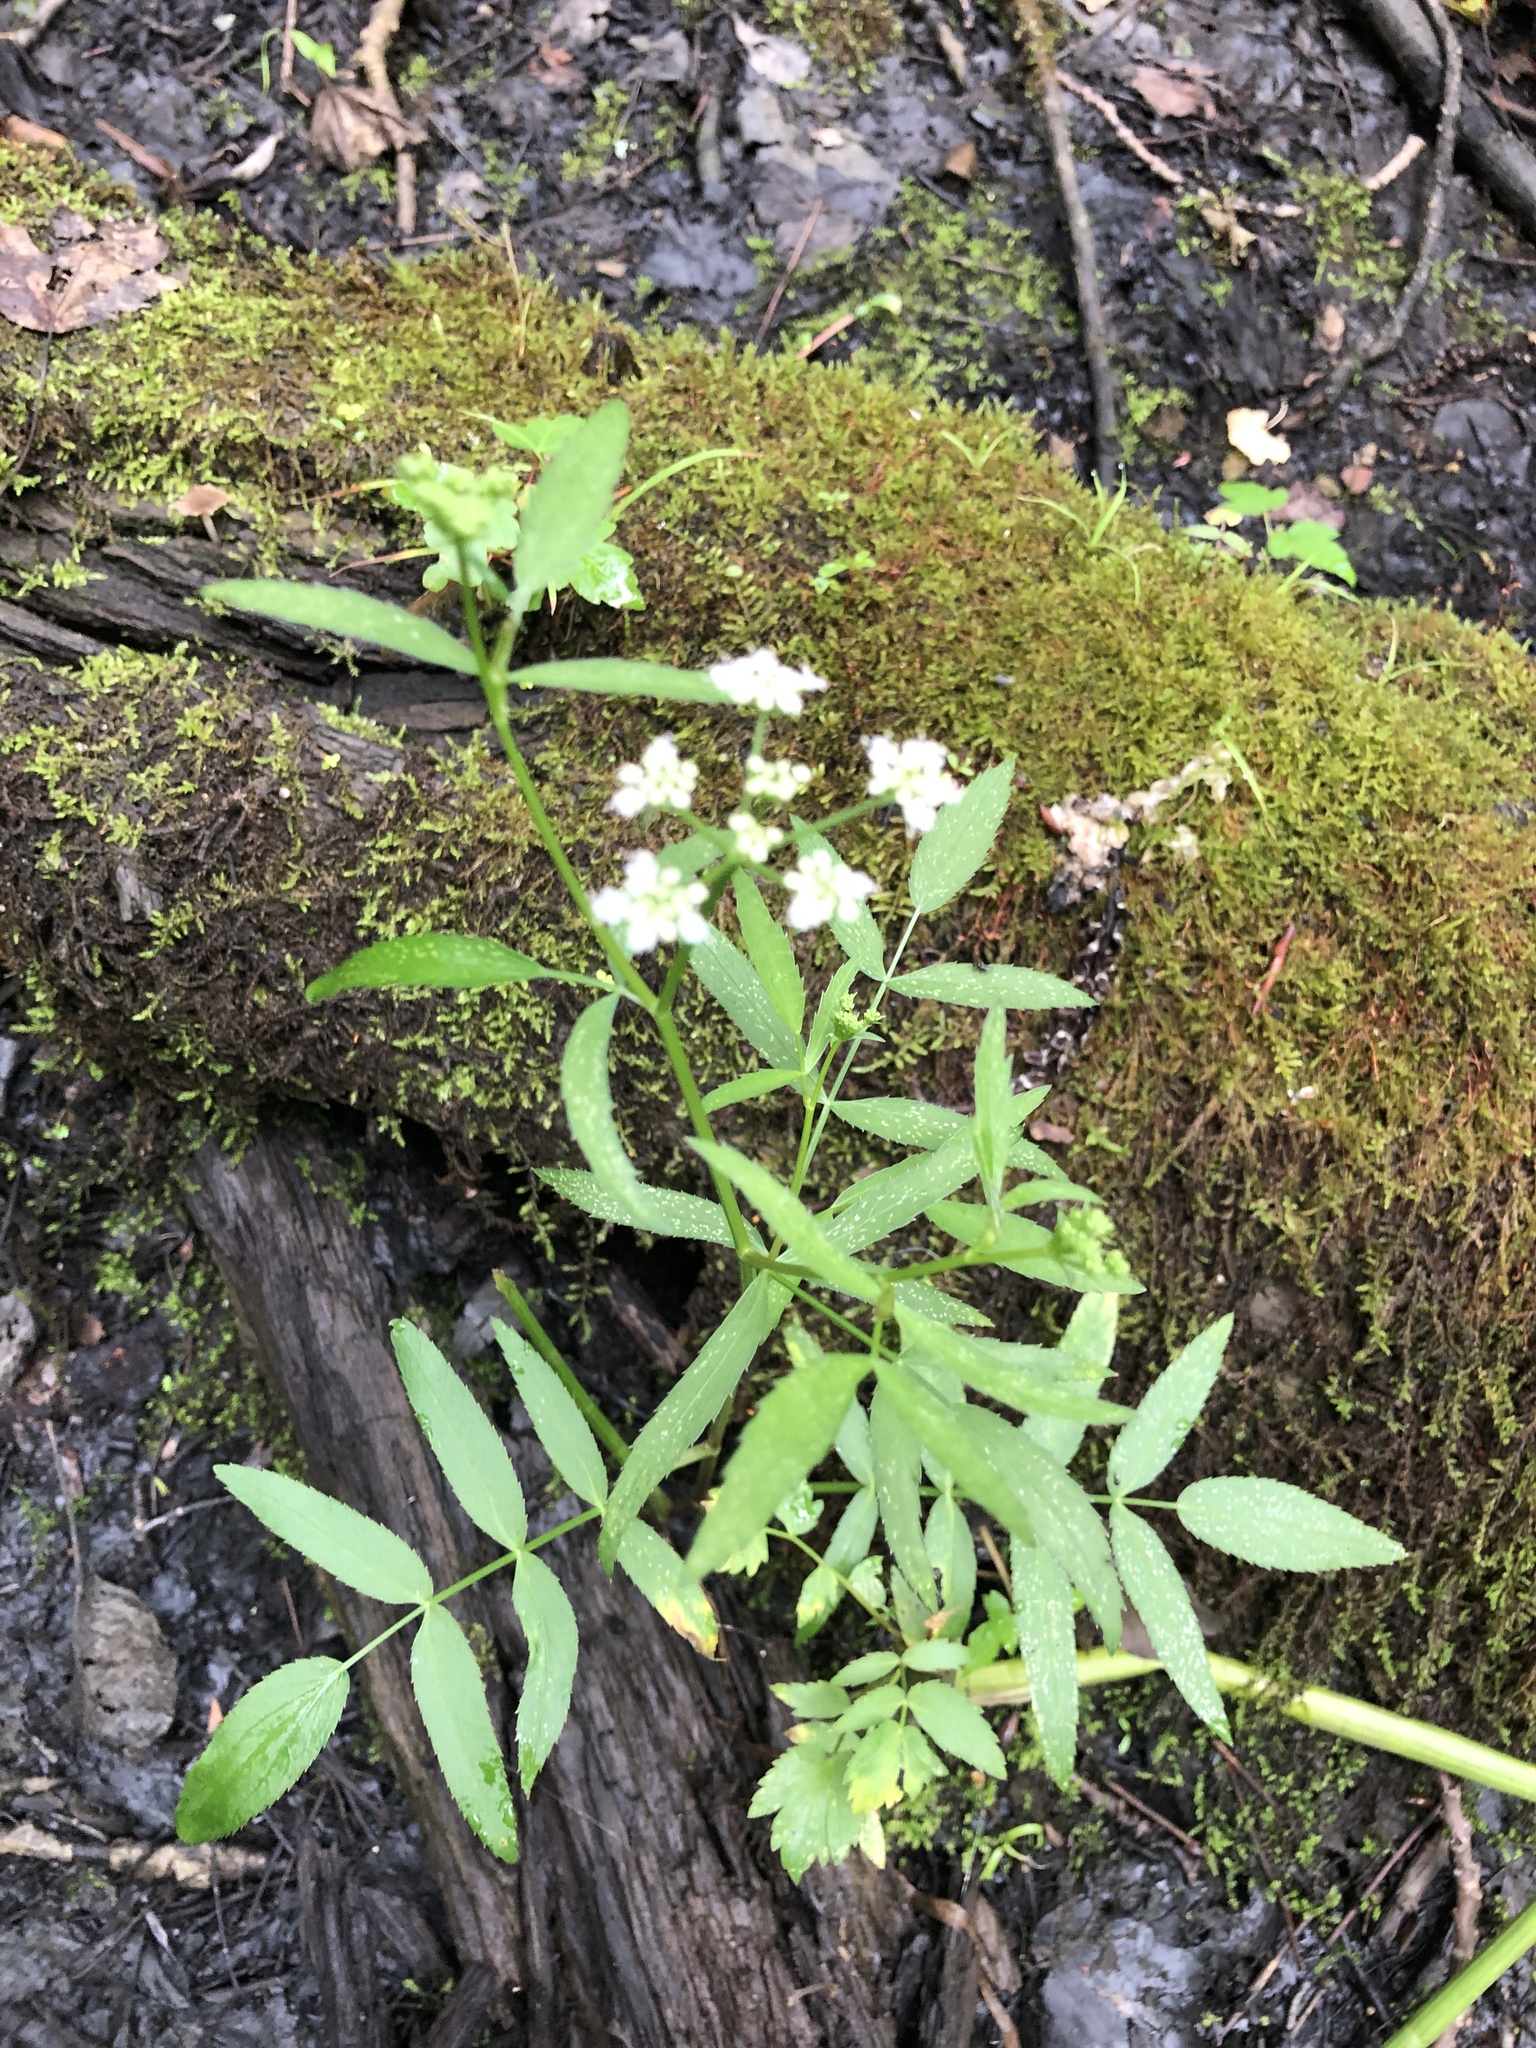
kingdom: Plantae
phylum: Tracheophyta
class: Magnoliopsida
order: Apiales
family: Apiaceae
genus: Sium
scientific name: Sium suave
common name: Hemlock water-parsnip
